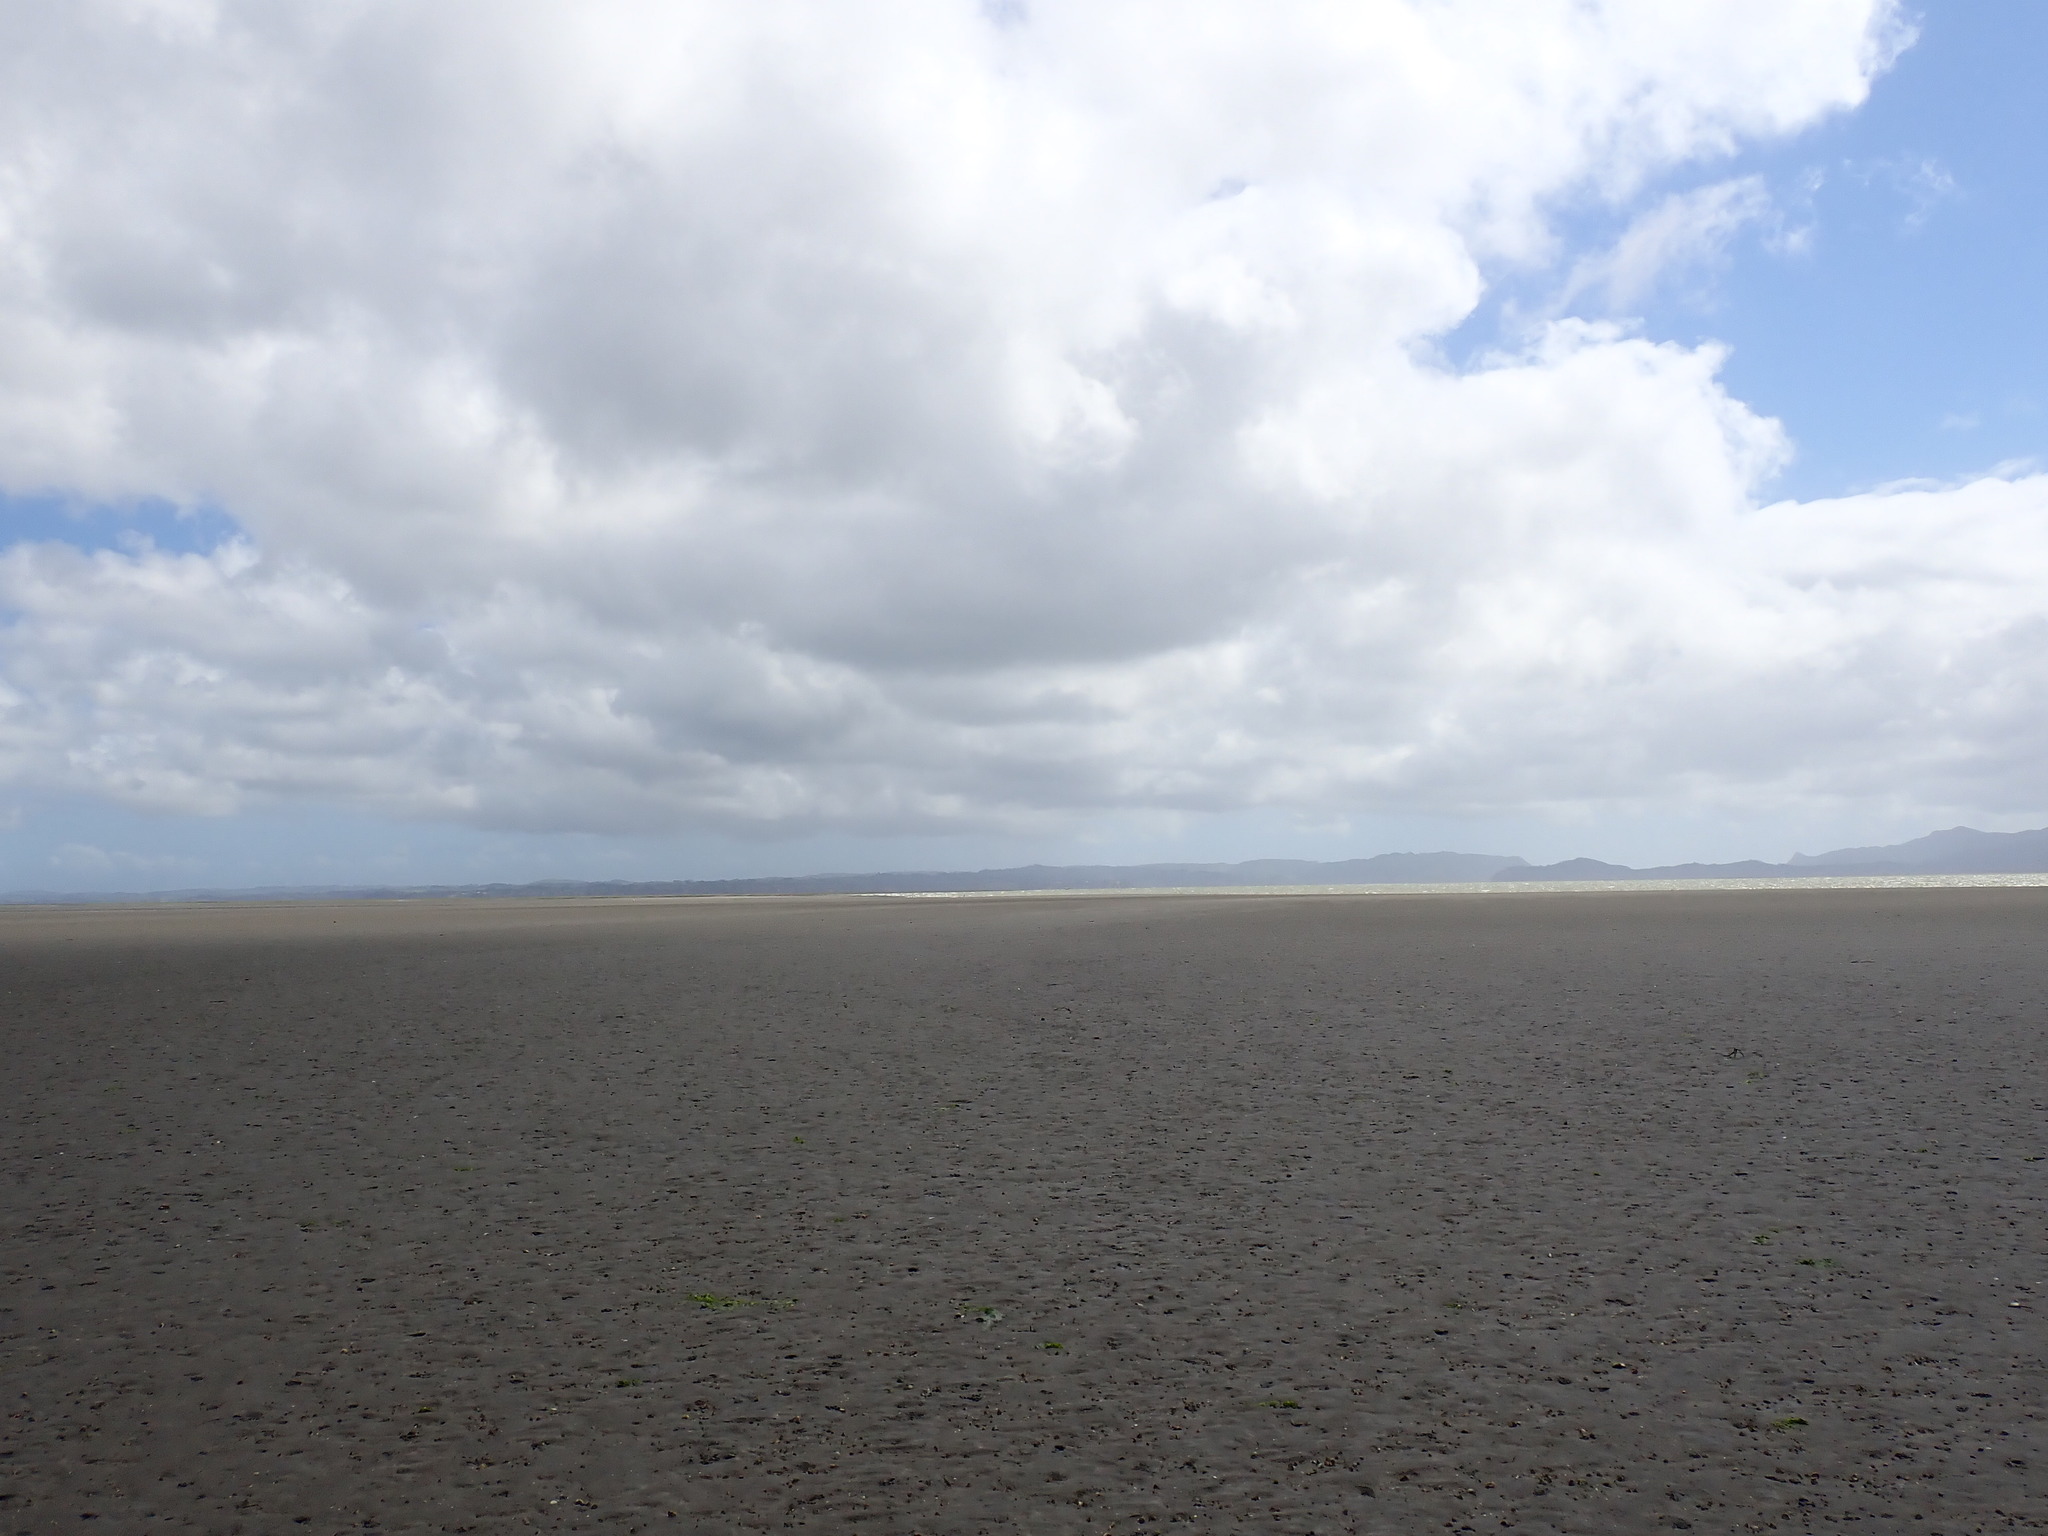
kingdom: Animalia
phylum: Mollusca
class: Bivalvia
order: Venerida
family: Veneridae
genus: Austrovenus
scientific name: Austrovenus stutchburyi
